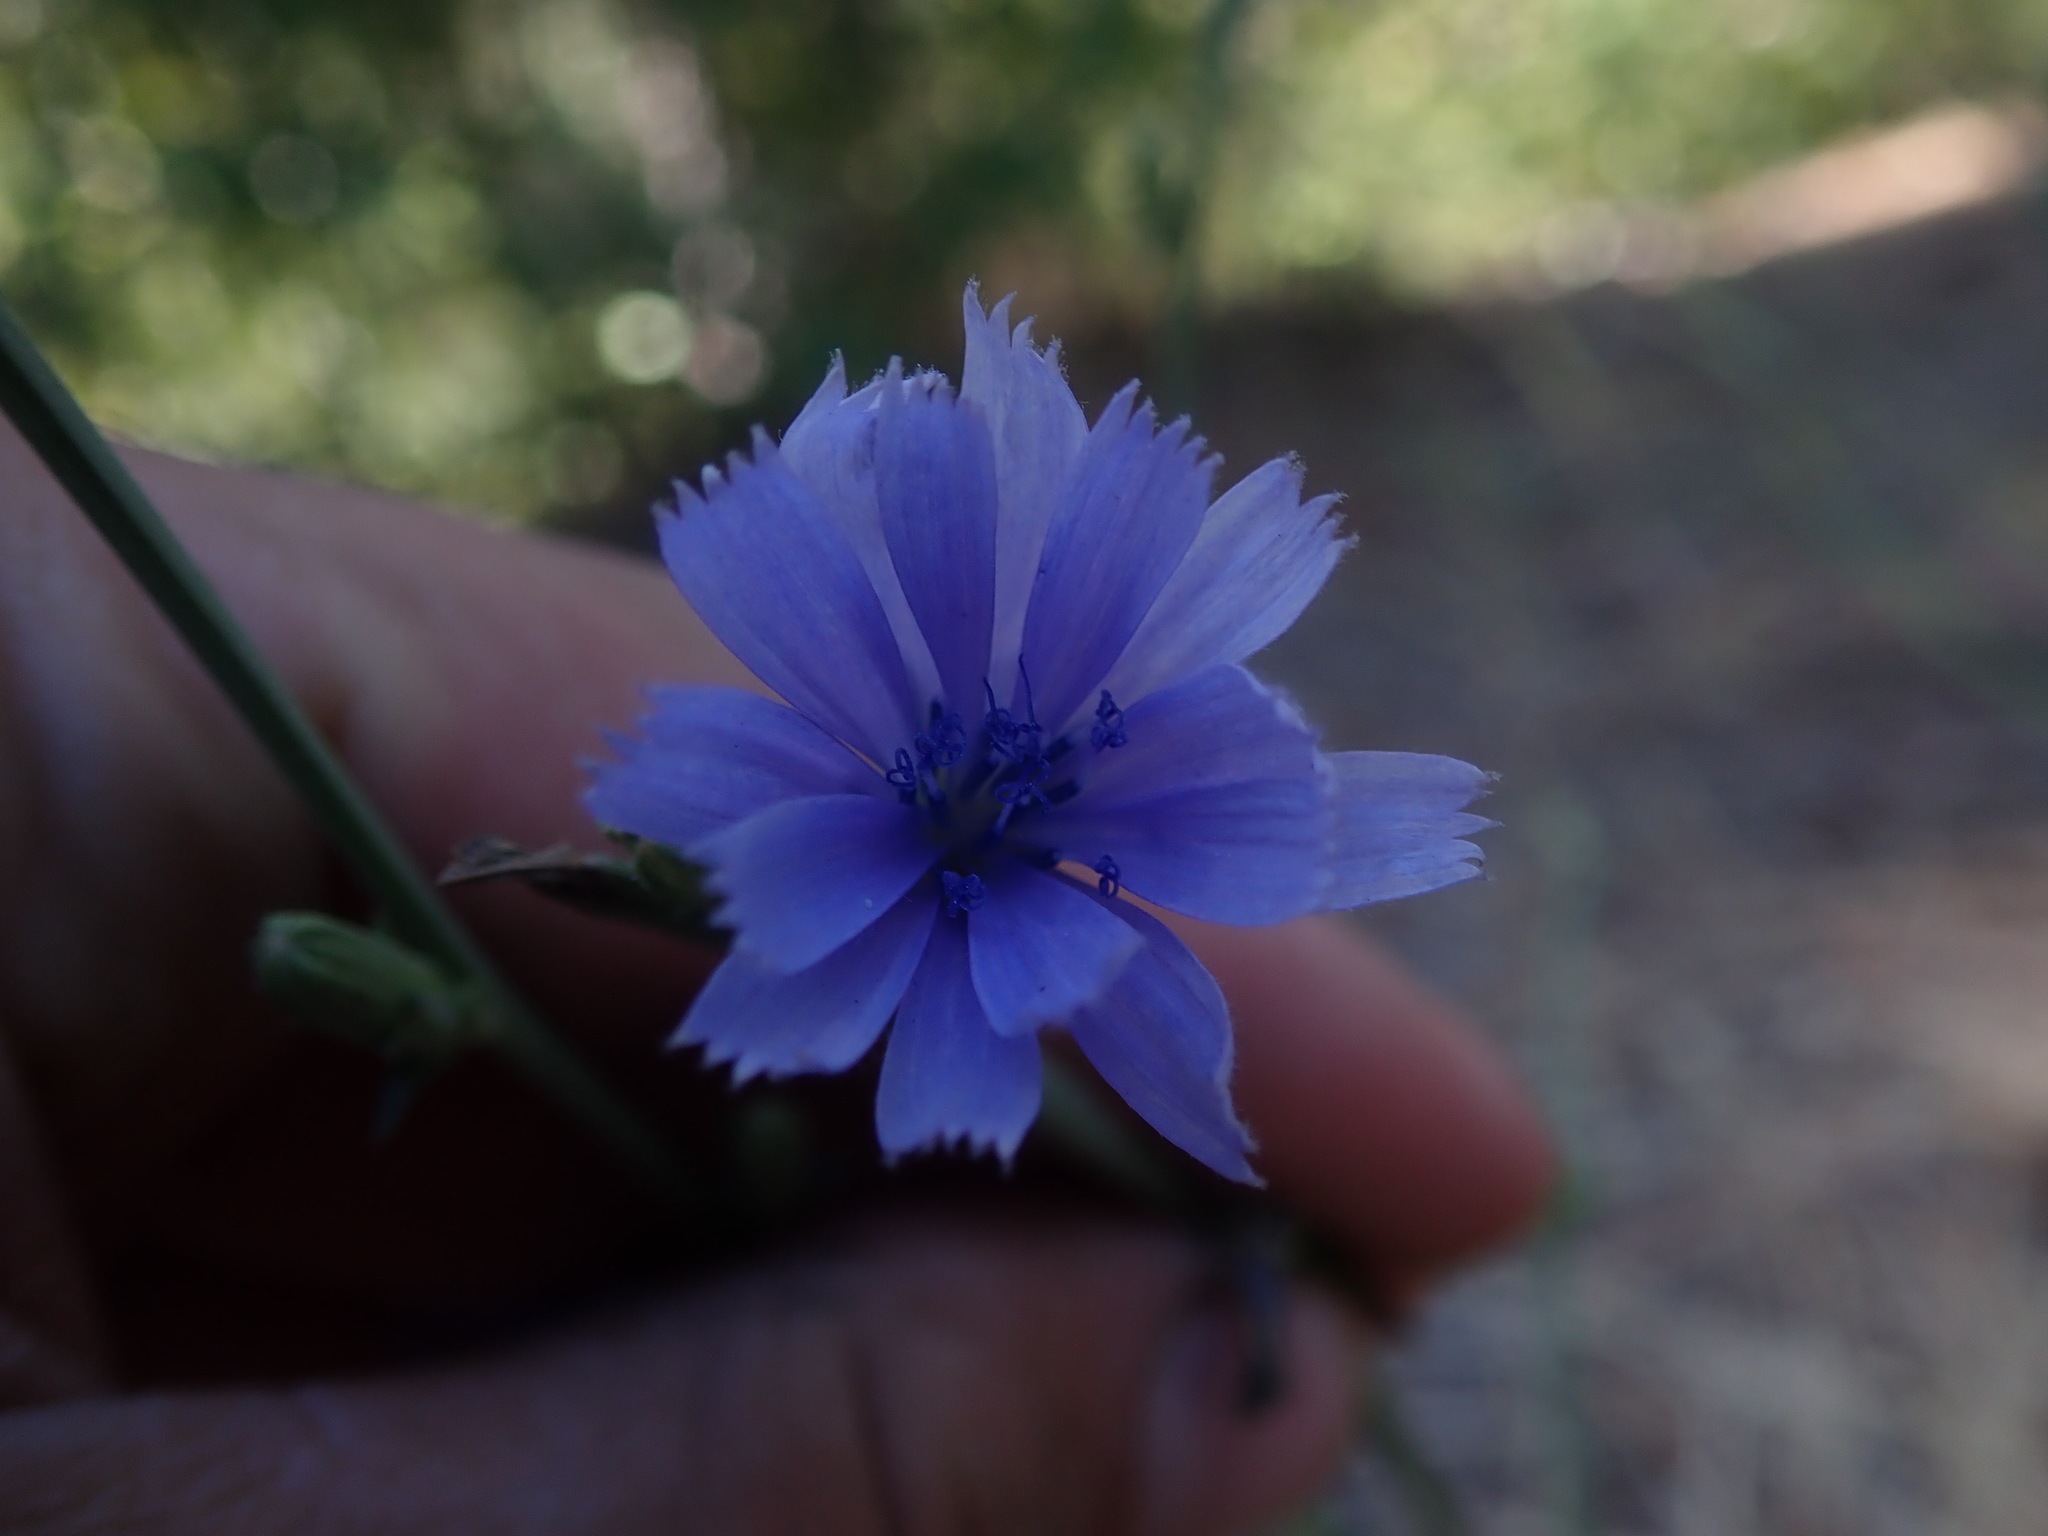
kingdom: Plantae
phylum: Tracheophyta
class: Magnoliopsida
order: Asterales
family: Asteraceae
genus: Cichorium
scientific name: Cichorium intybus
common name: Chicory
